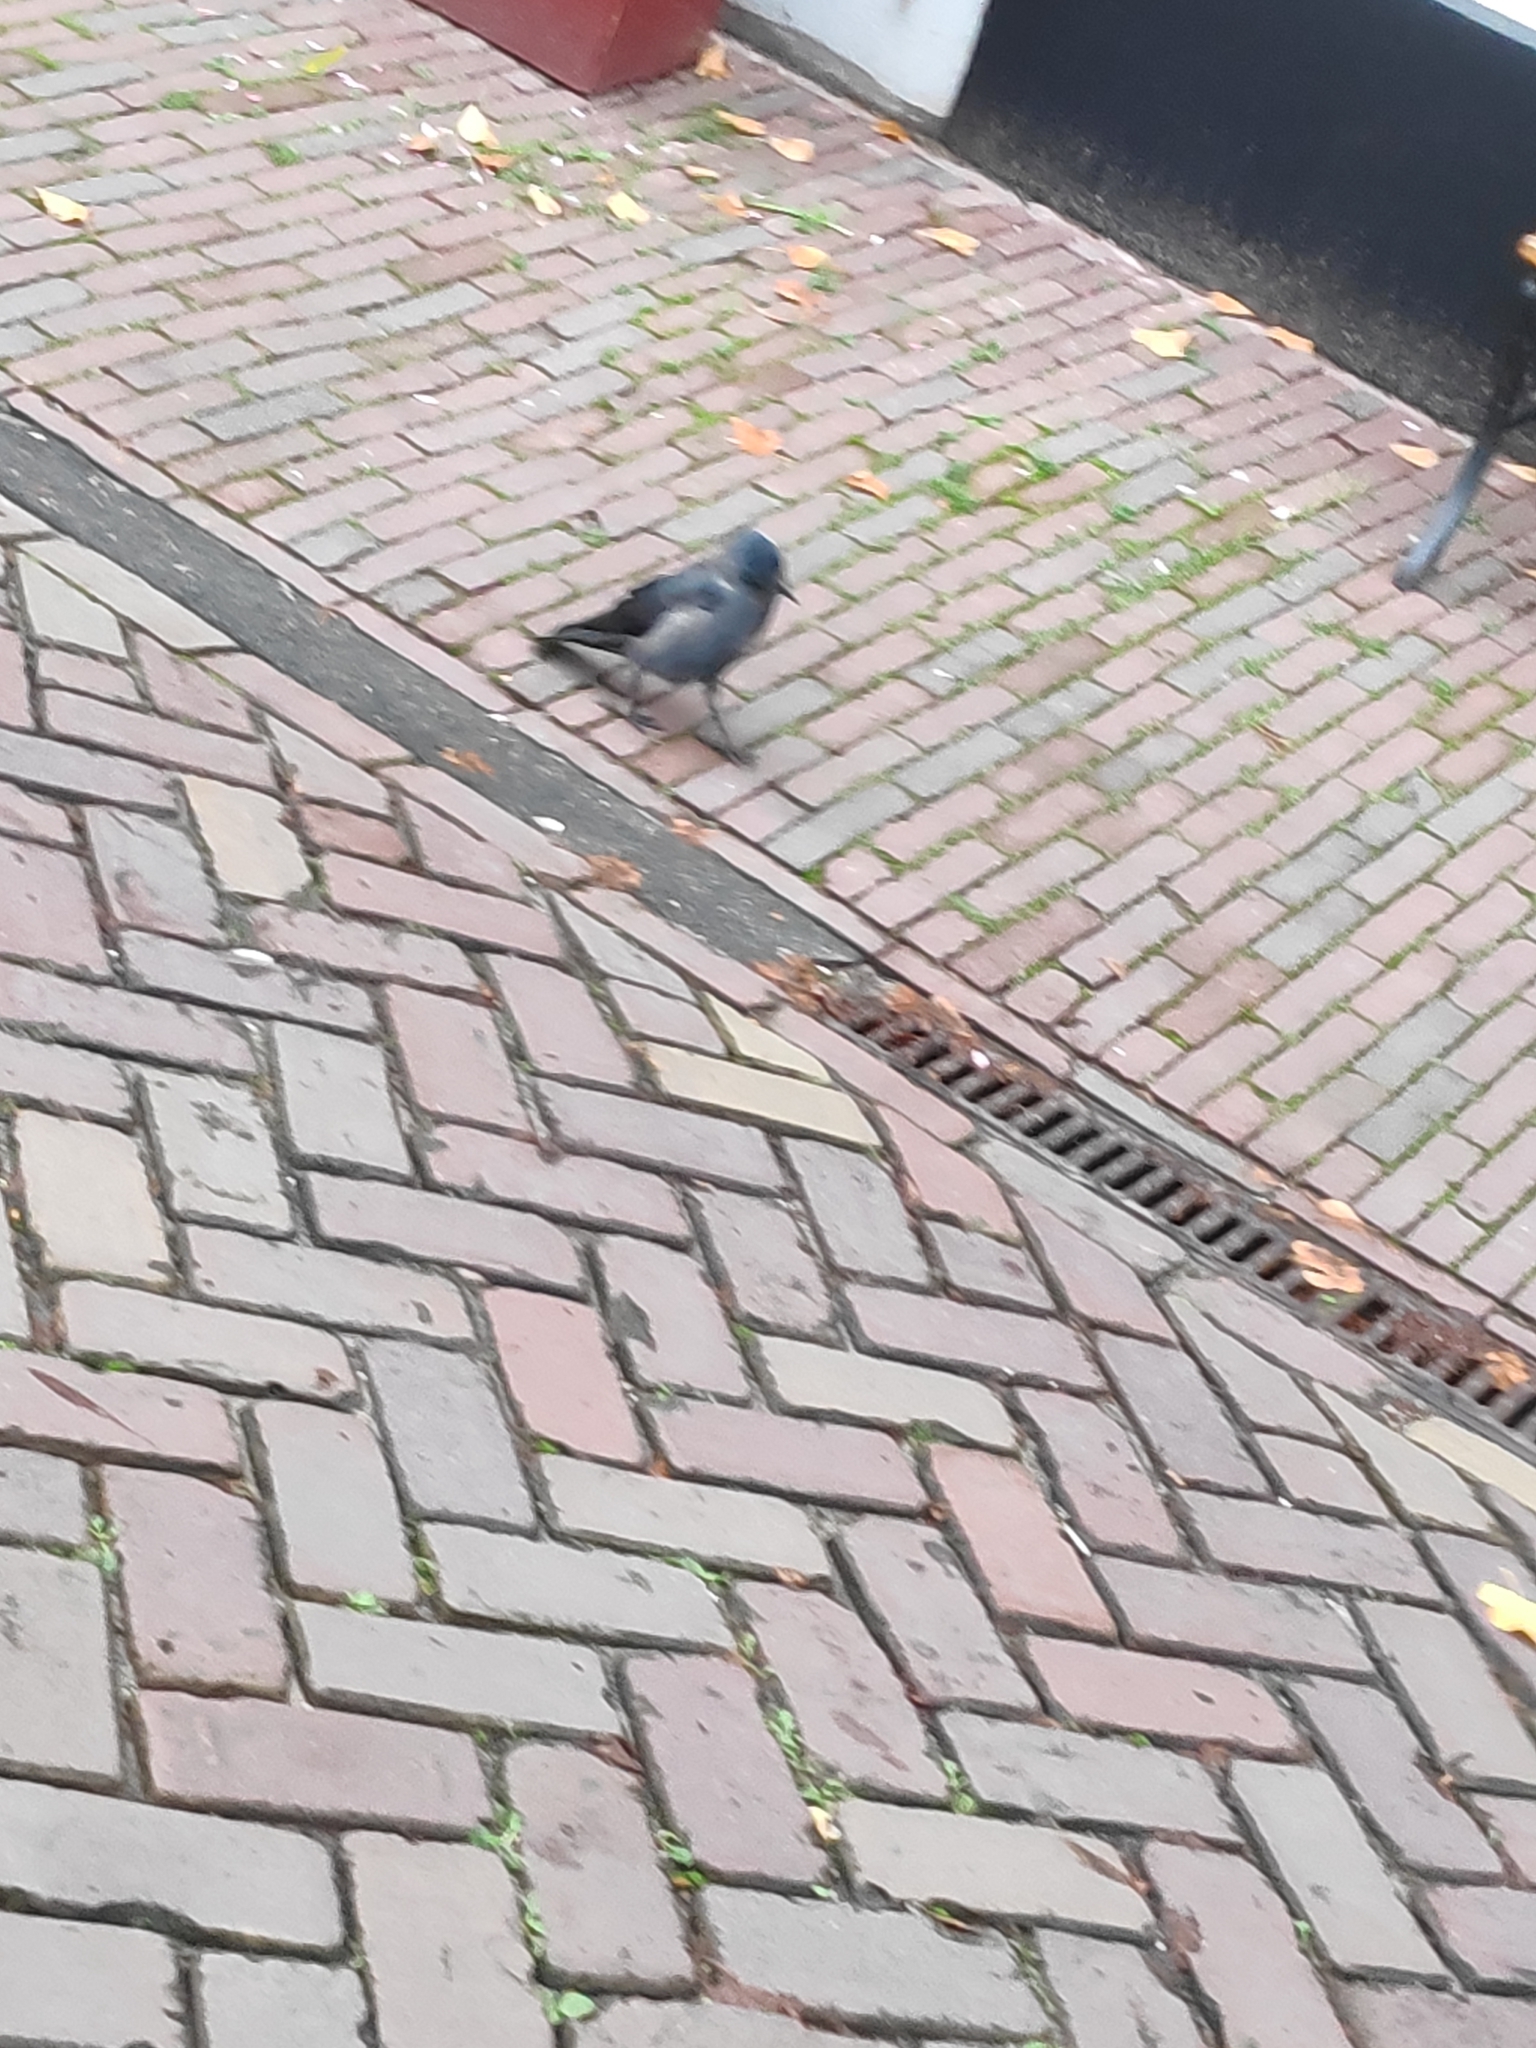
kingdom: Animalia
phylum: Chordata
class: Aves
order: Passeriformes
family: Corvidae
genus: Coloeus
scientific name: Coloeus monedula
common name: Western jackdaw
